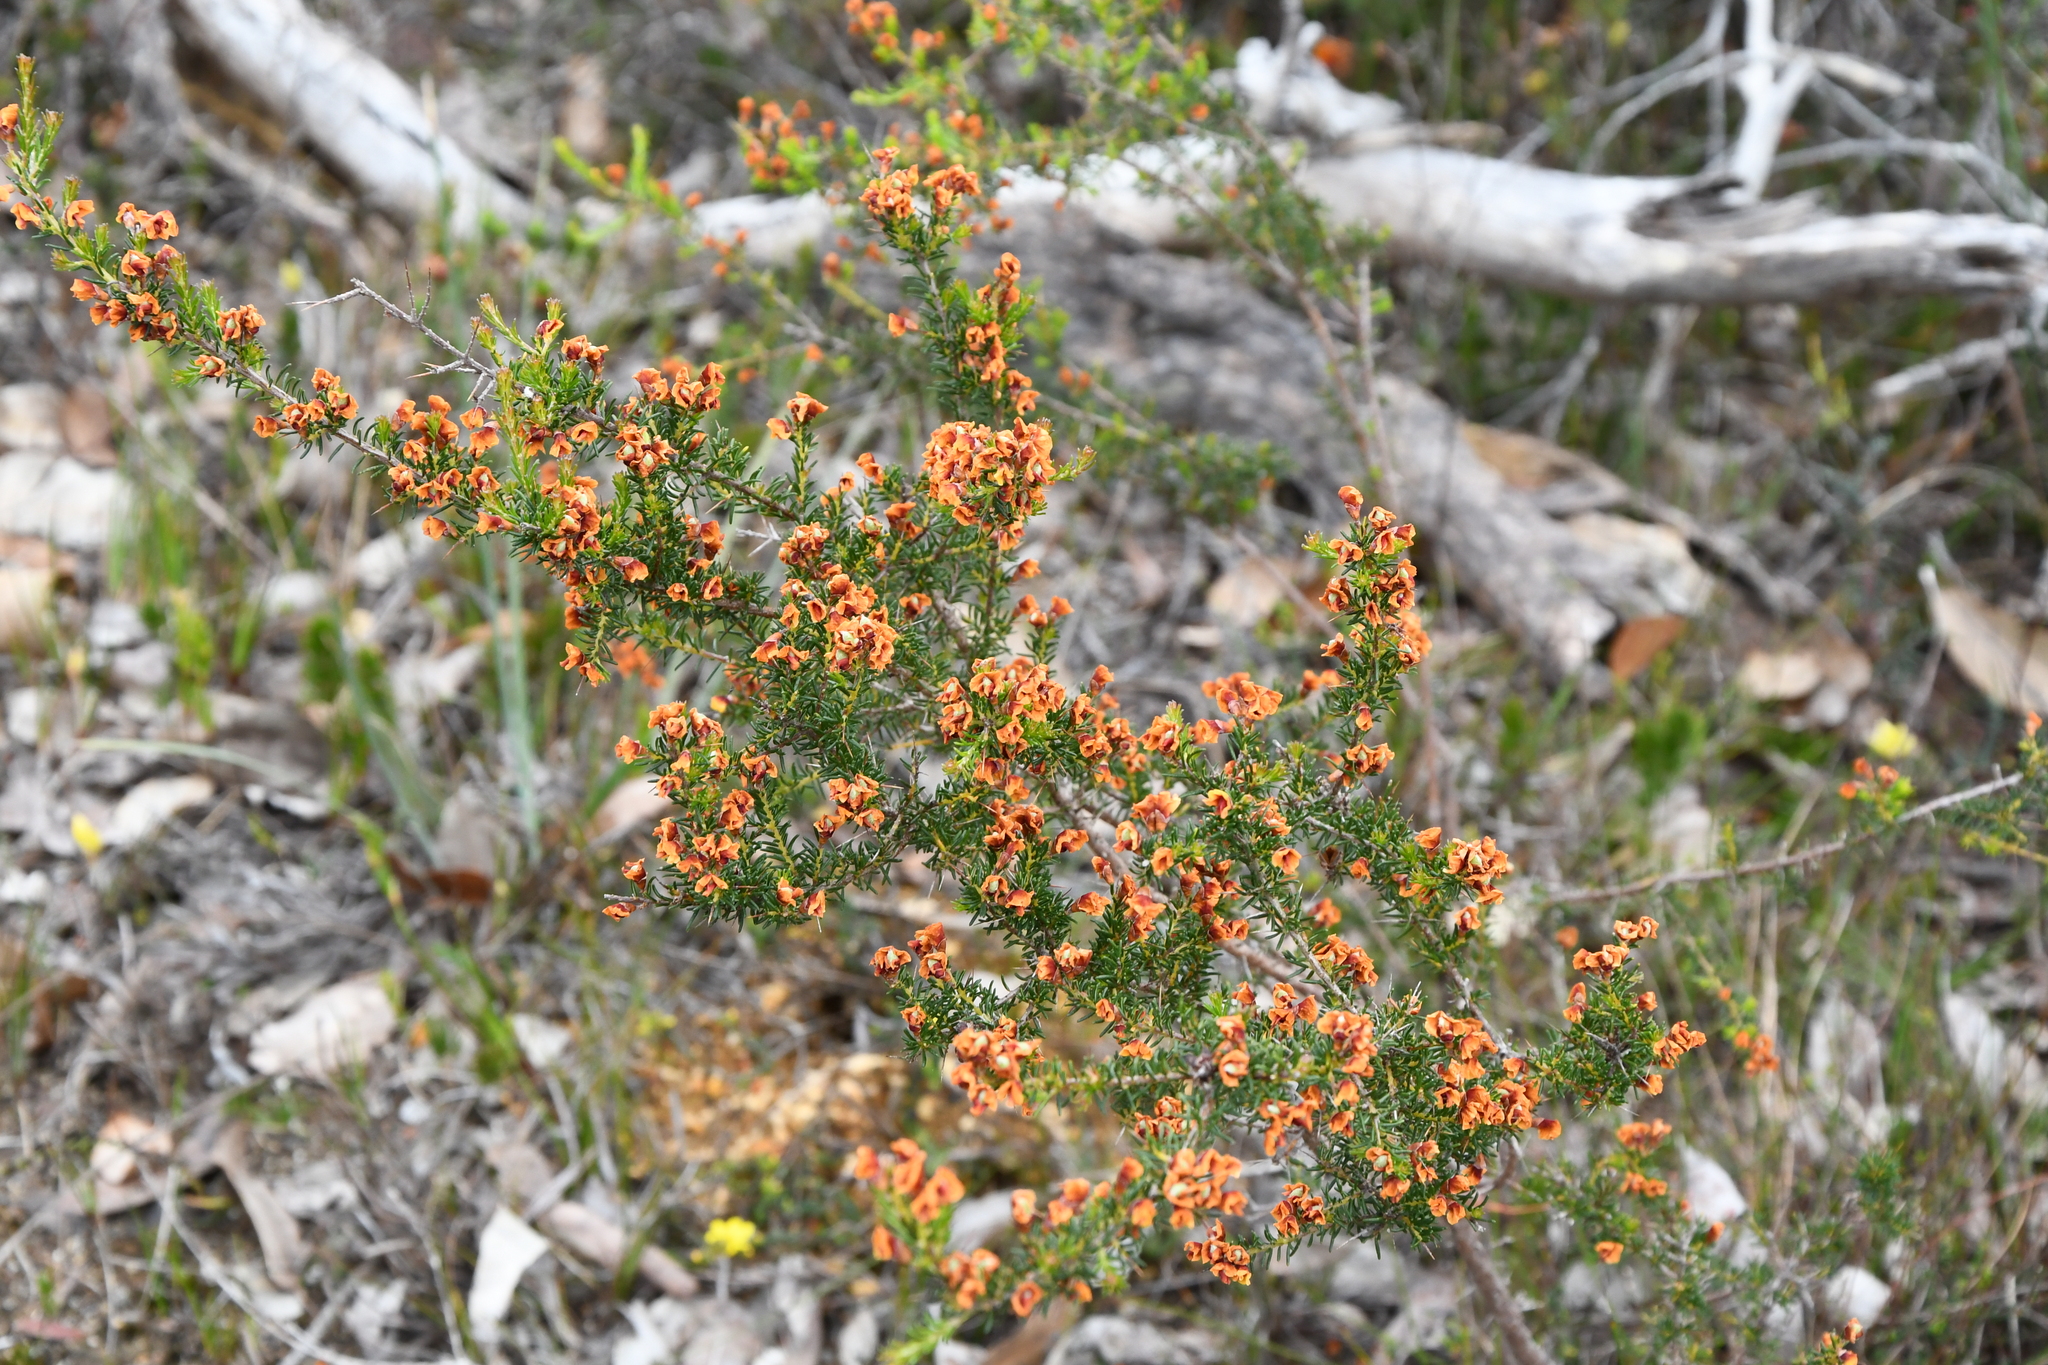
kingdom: Plantae
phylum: Tracheophyta
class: Magnoliopsida
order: Fabales
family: Fabaceae
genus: Dillwynia
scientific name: Dillwynia laxiflora
